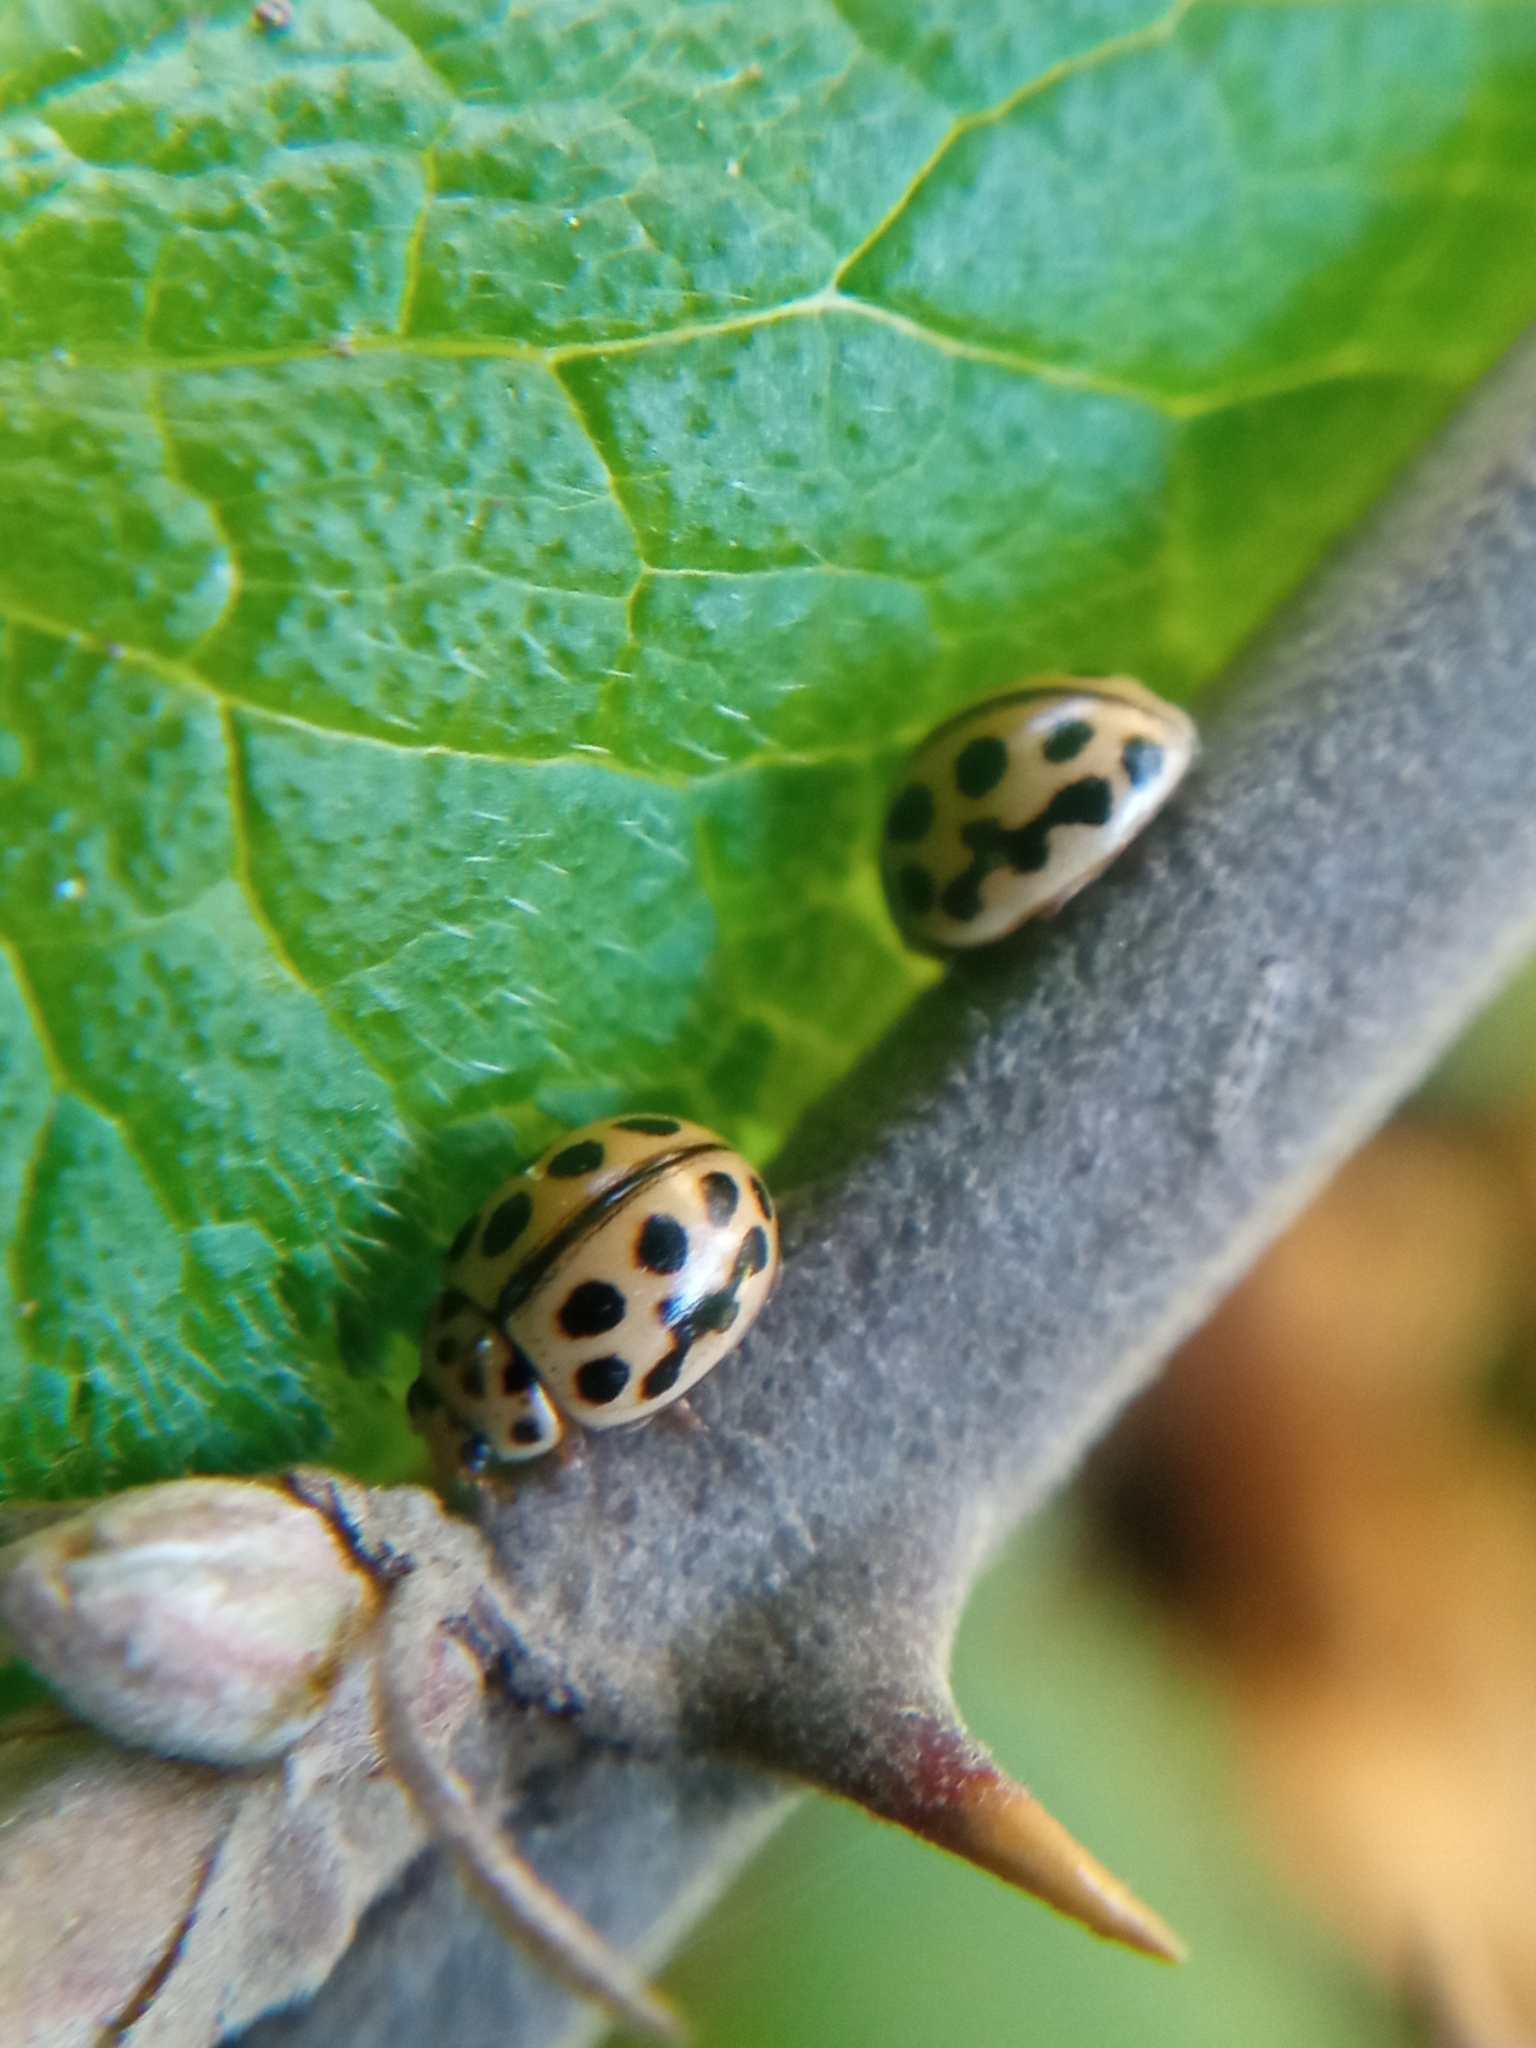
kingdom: Animalia
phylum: Arthropoda
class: Insecta
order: Coleoptera
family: Coccinellidae
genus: Tytthaspis
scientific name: Tytthaspis sedecimpunctata
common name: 16-spot ladybird
